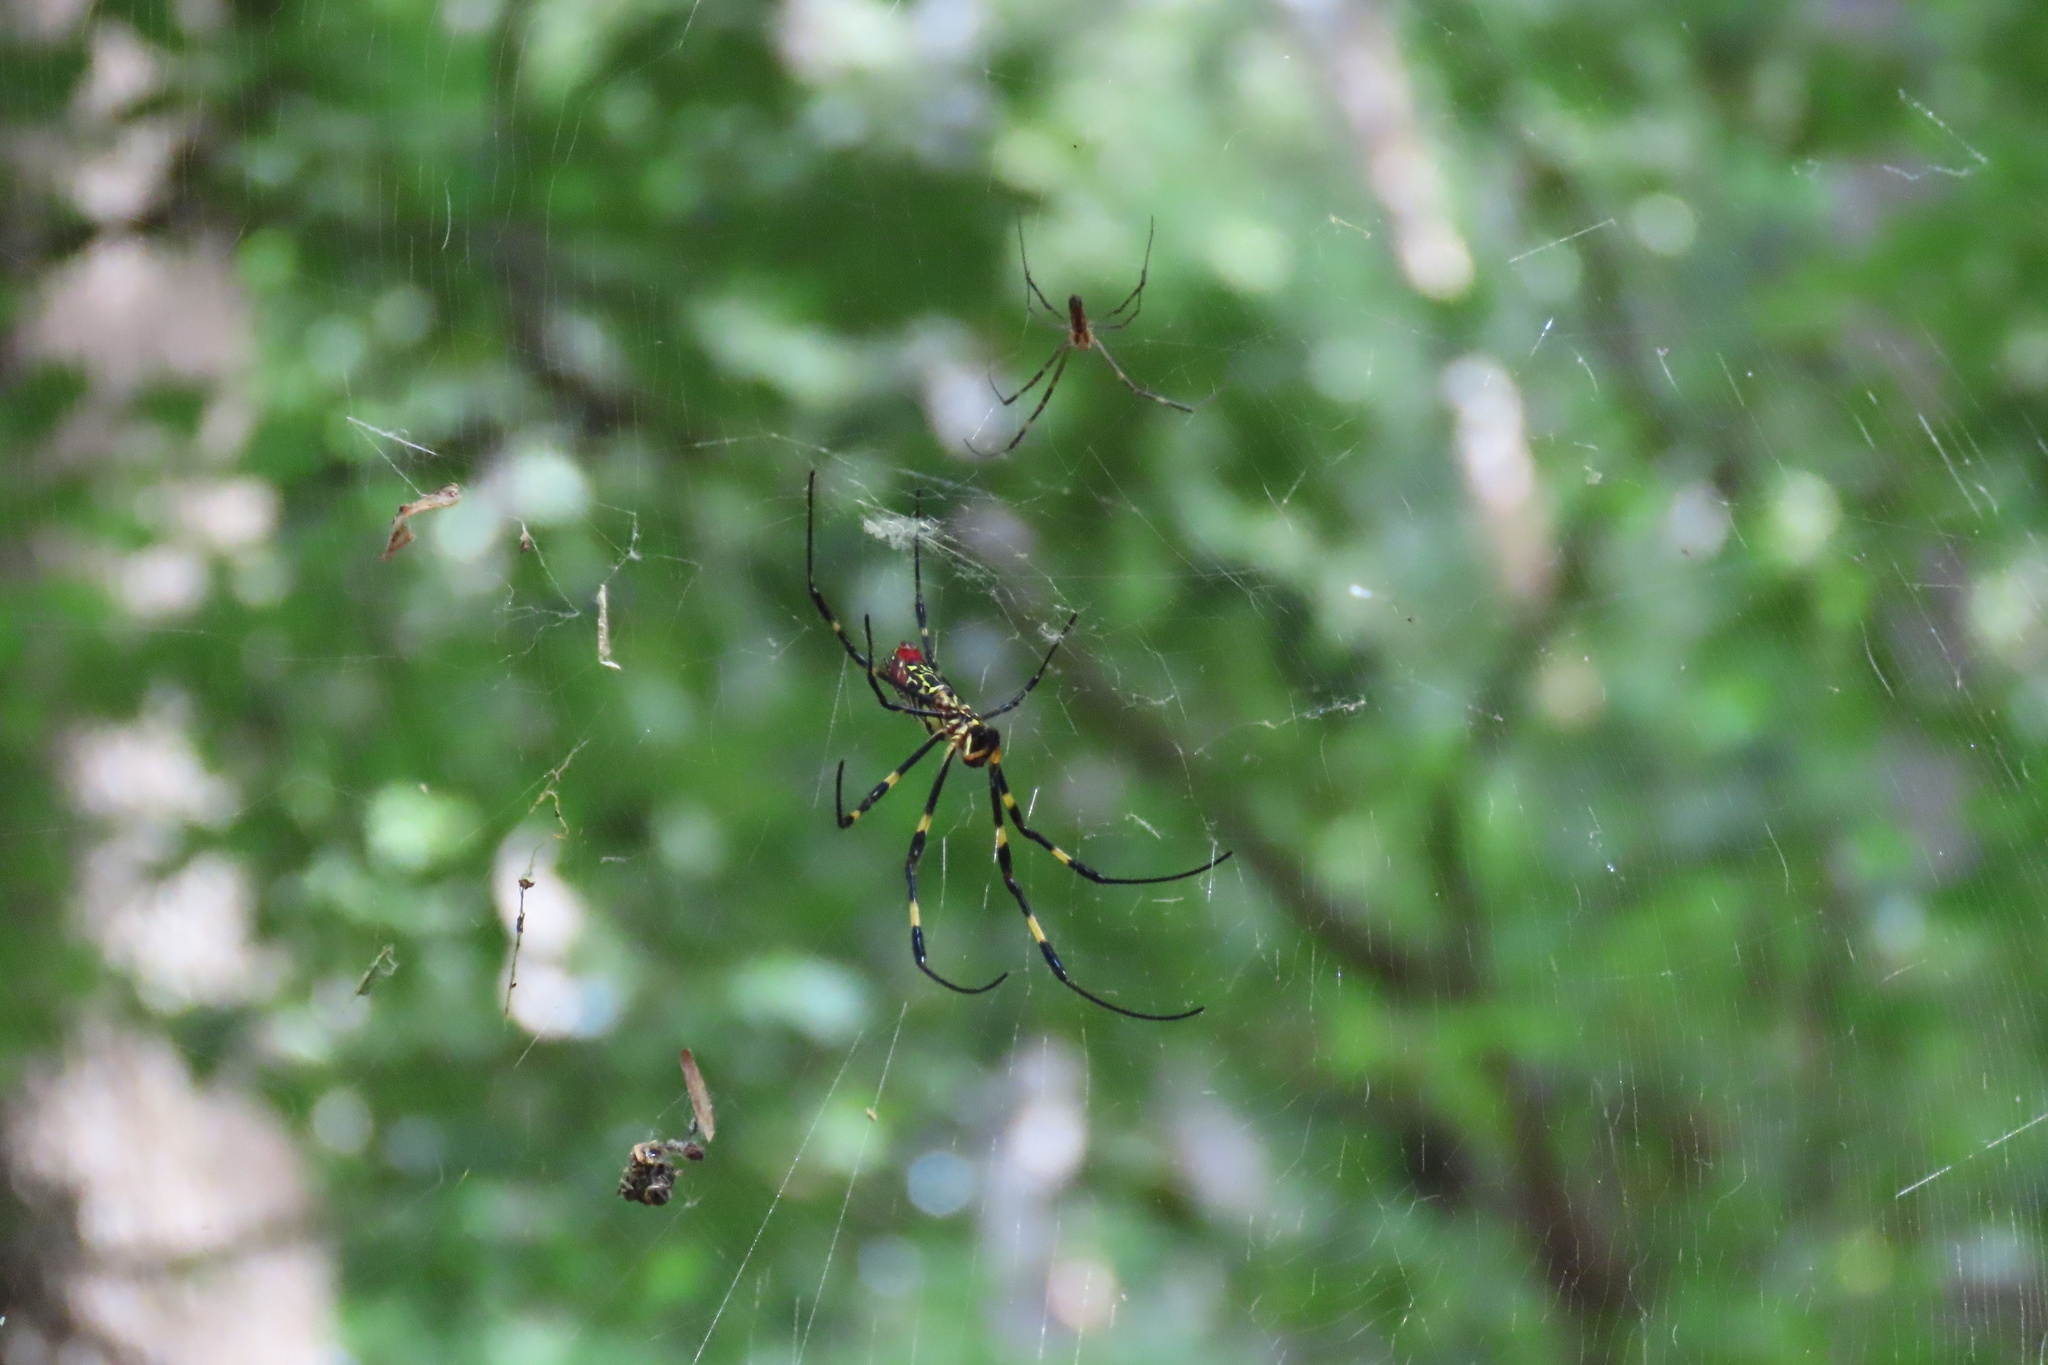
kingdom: Animalia
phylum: Arthropoda
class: Arachnida
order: Araneae
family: Araneidae
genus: Trichonephila
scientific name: Trichonephila clavata
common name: Jorō spider
